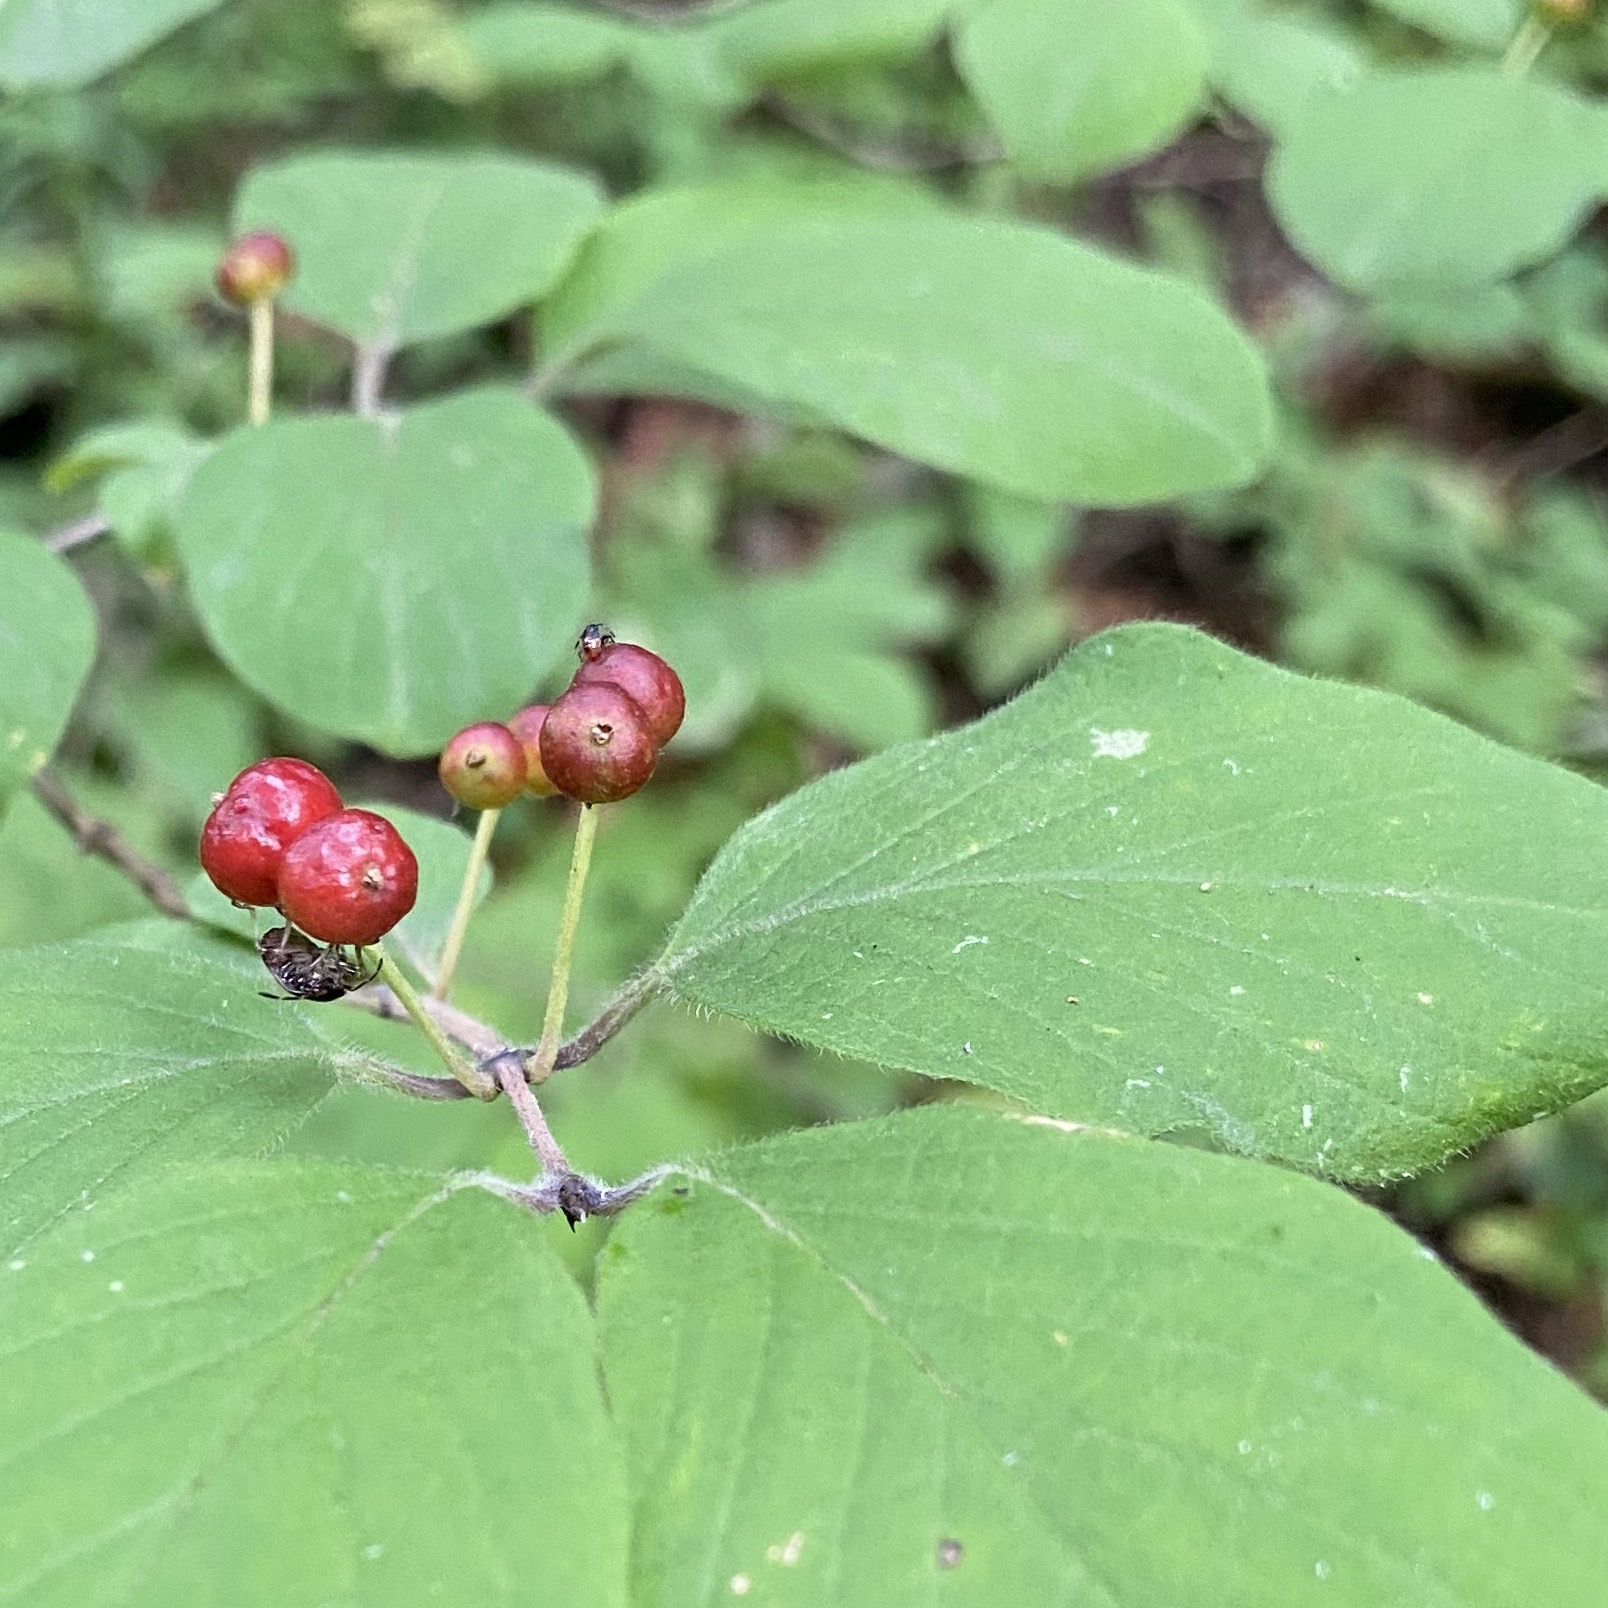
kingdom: Plantae
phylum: Tracheophyta
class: Magnoliopsida
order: Dipsacales
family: Caprifoliaceae
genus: Lonicera
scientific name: Lonicera xylosteum
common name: Fly honeysuckle
